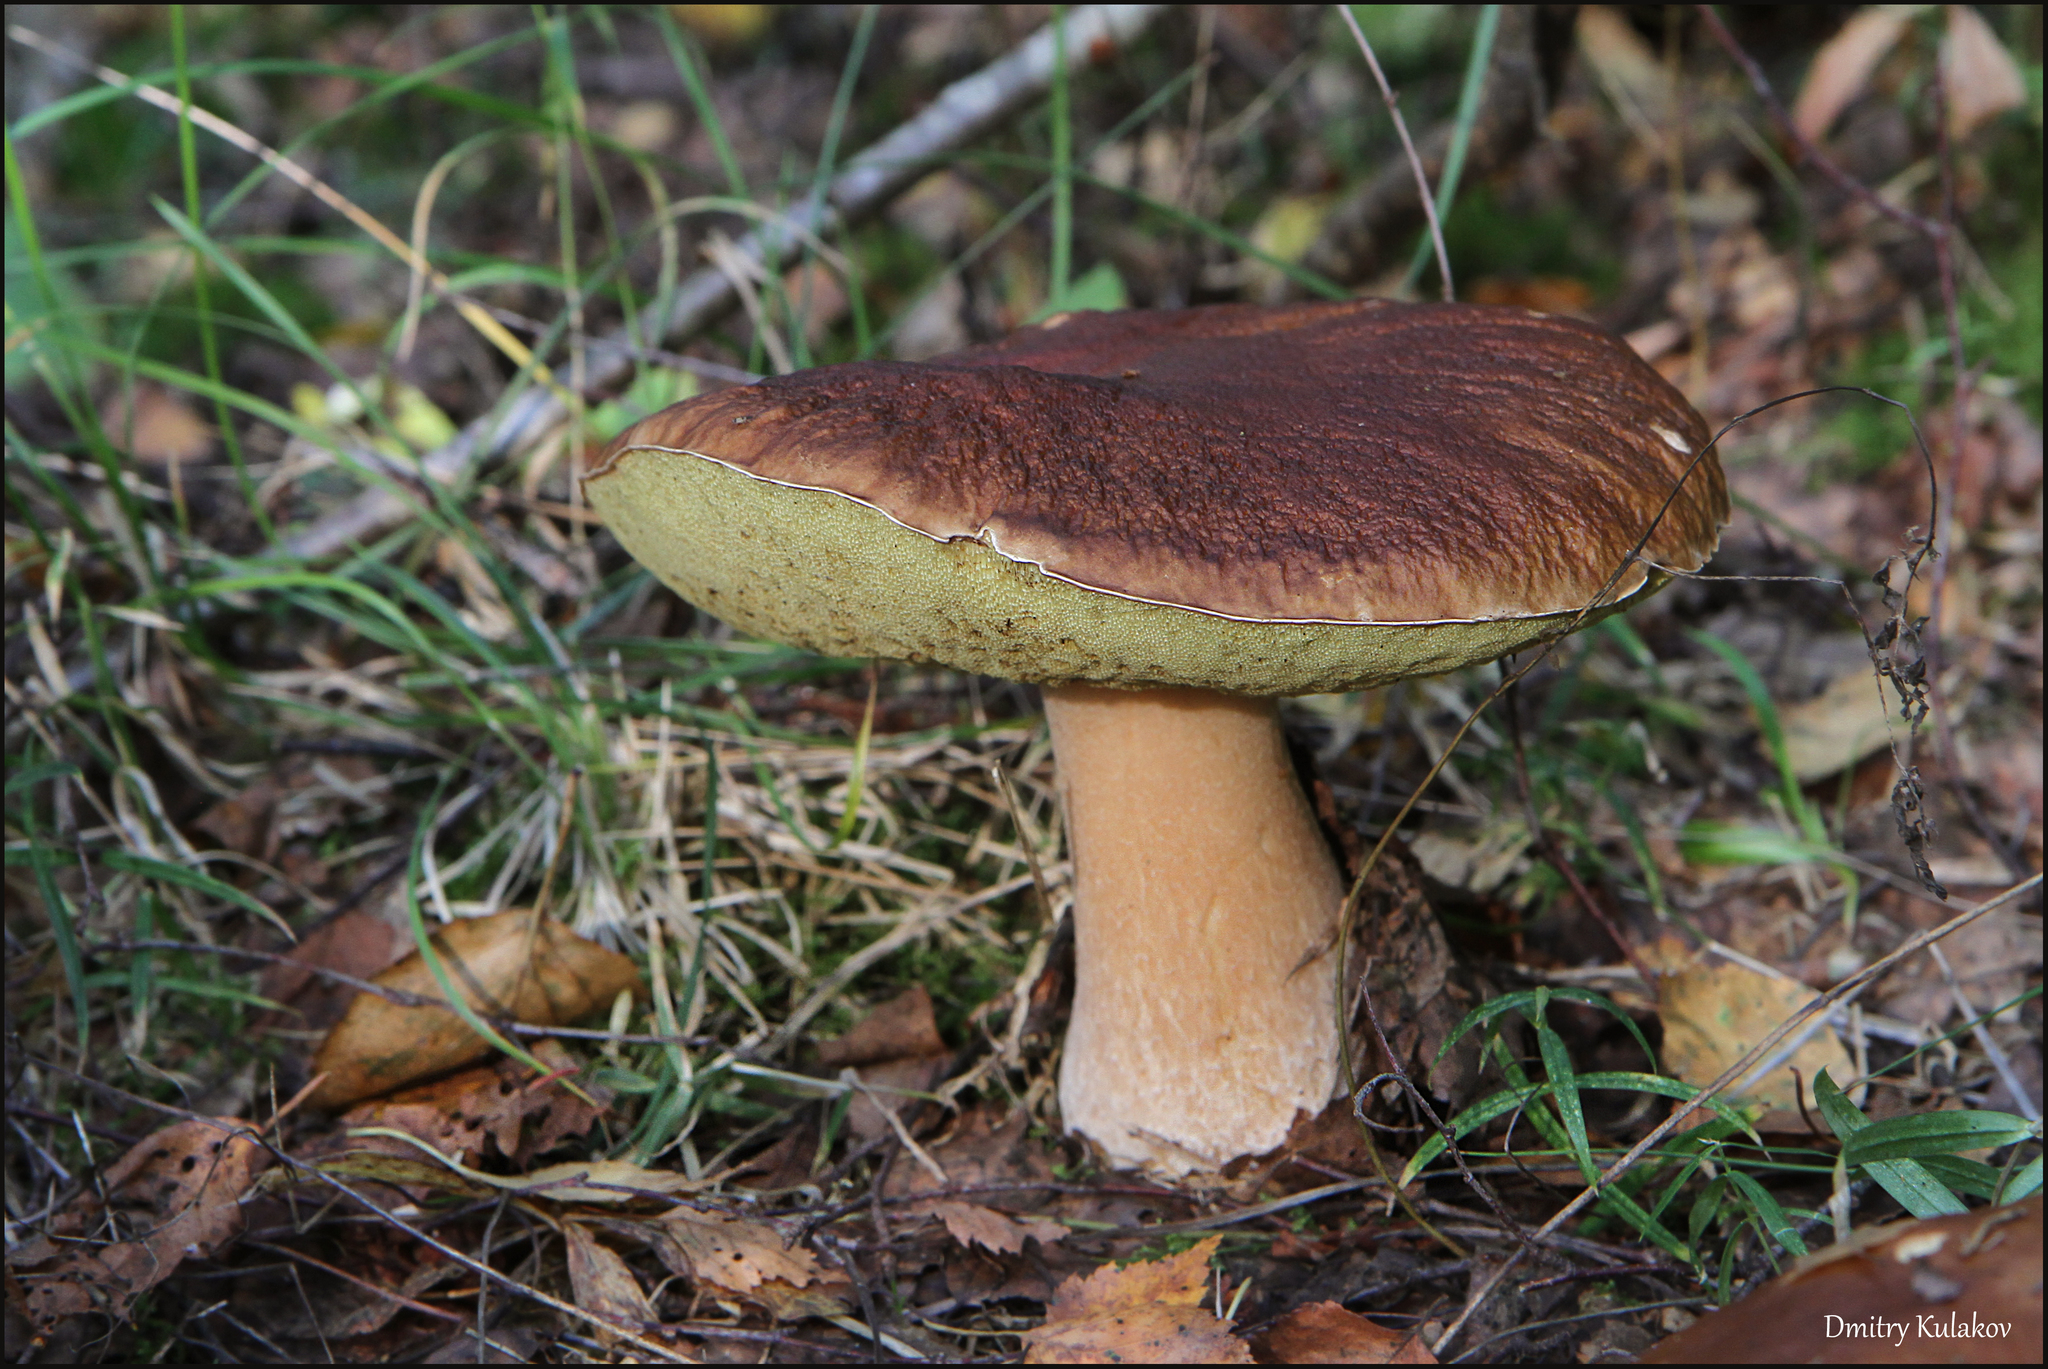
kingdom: Fungi
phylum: Basidiomycota
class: Agaricomycetes
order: Boletales
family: Boletaceae
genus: Boletus
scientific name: Boletus edulis
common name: Cep
